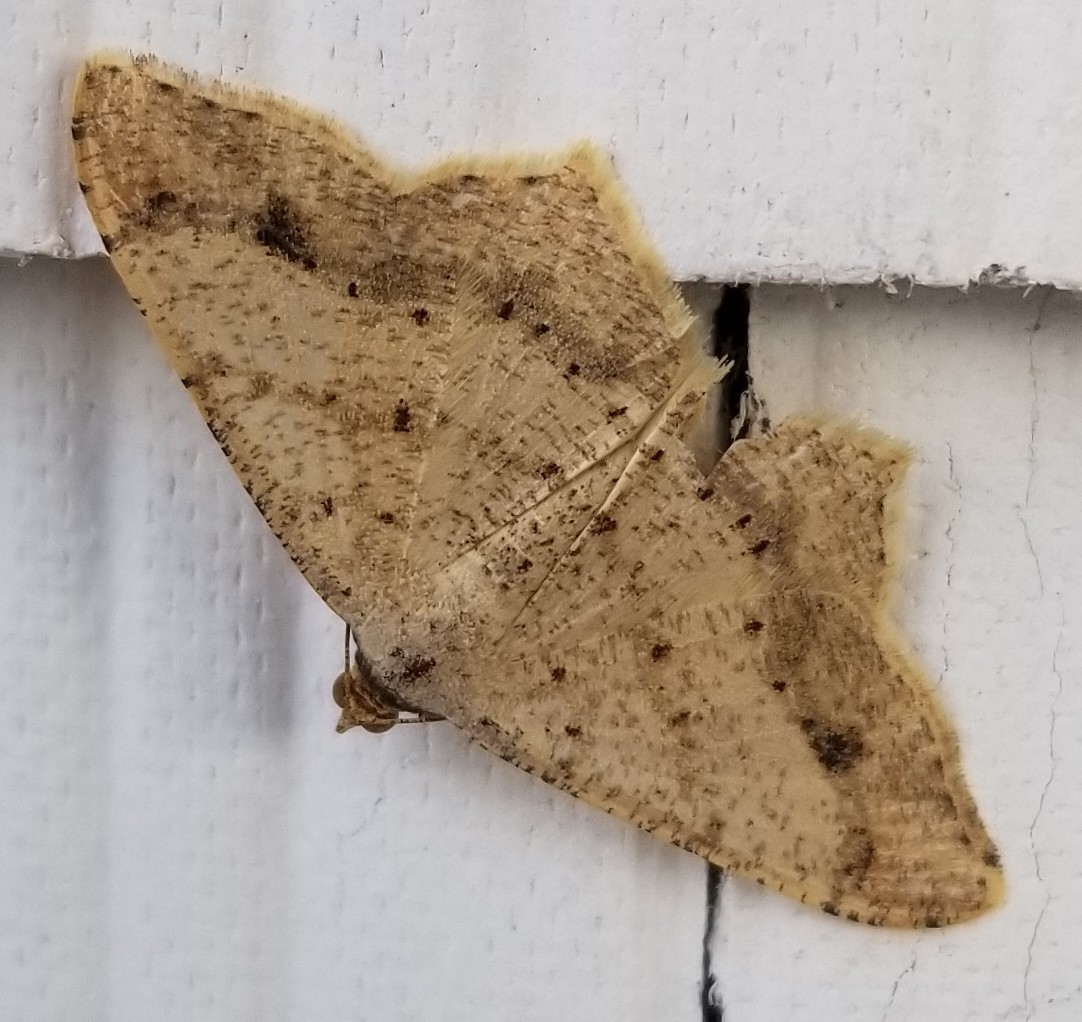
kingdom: Animalia
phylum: Arthropoda
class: Insecta
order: Lepidoptera
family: Geometridae
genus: Macaria
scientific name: Macaria abydata
